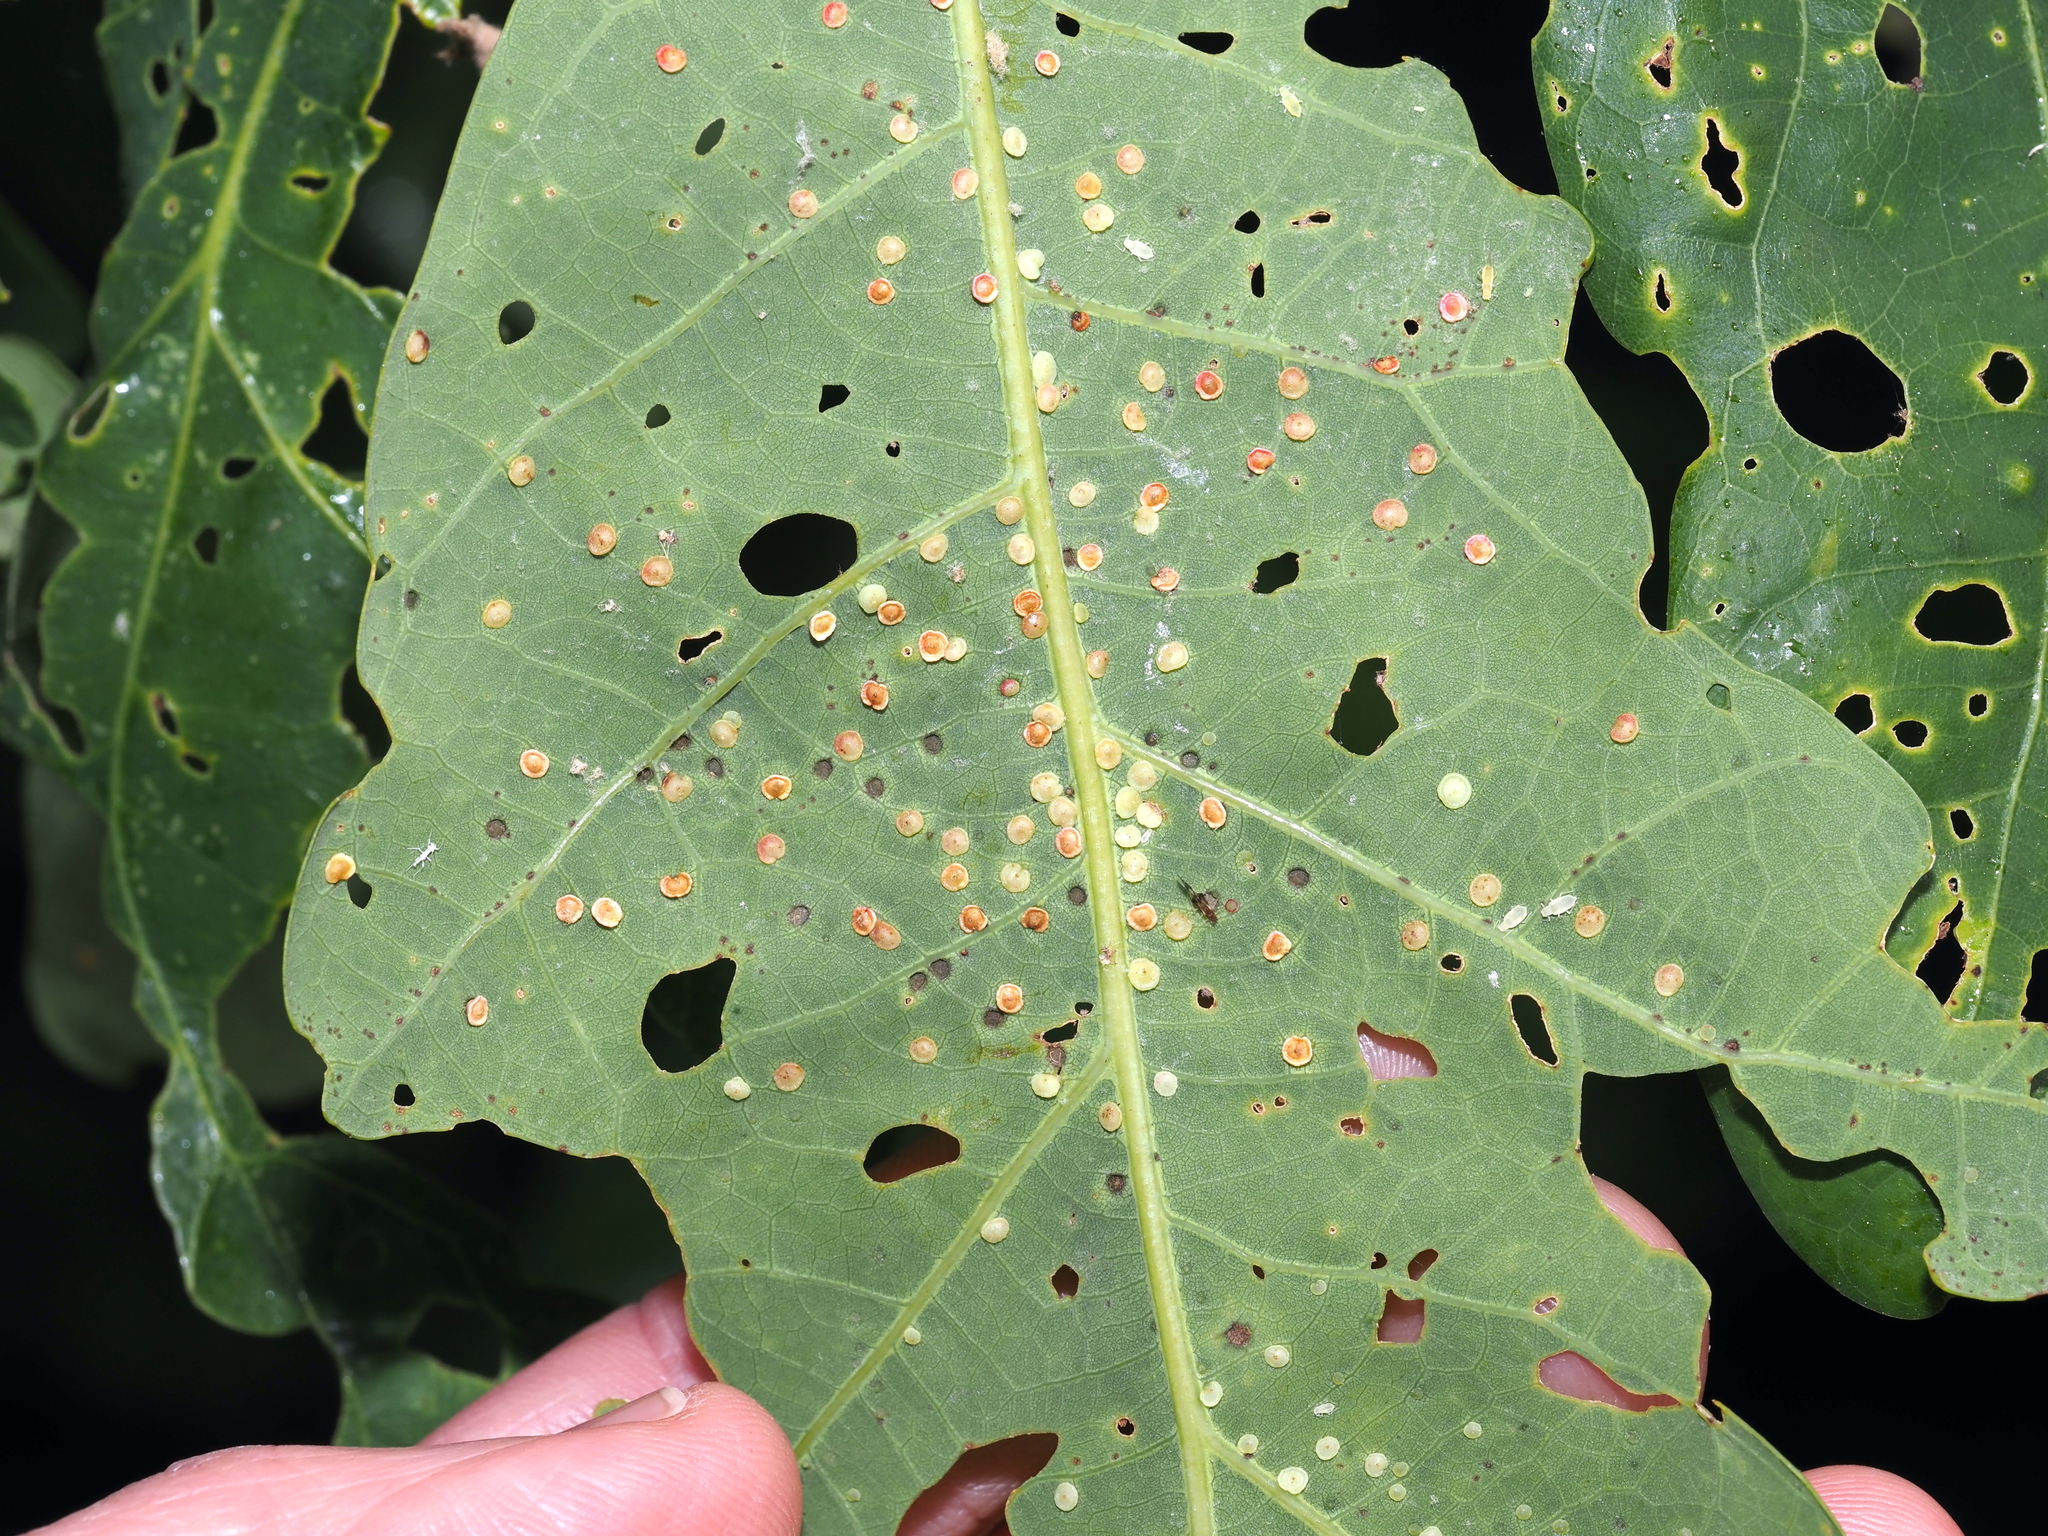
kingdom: Animalia
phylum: Arthropoda
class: Insecta
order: Hymenoptera
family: Cynipidae
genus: Neuroterus
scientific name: Neuroterus
